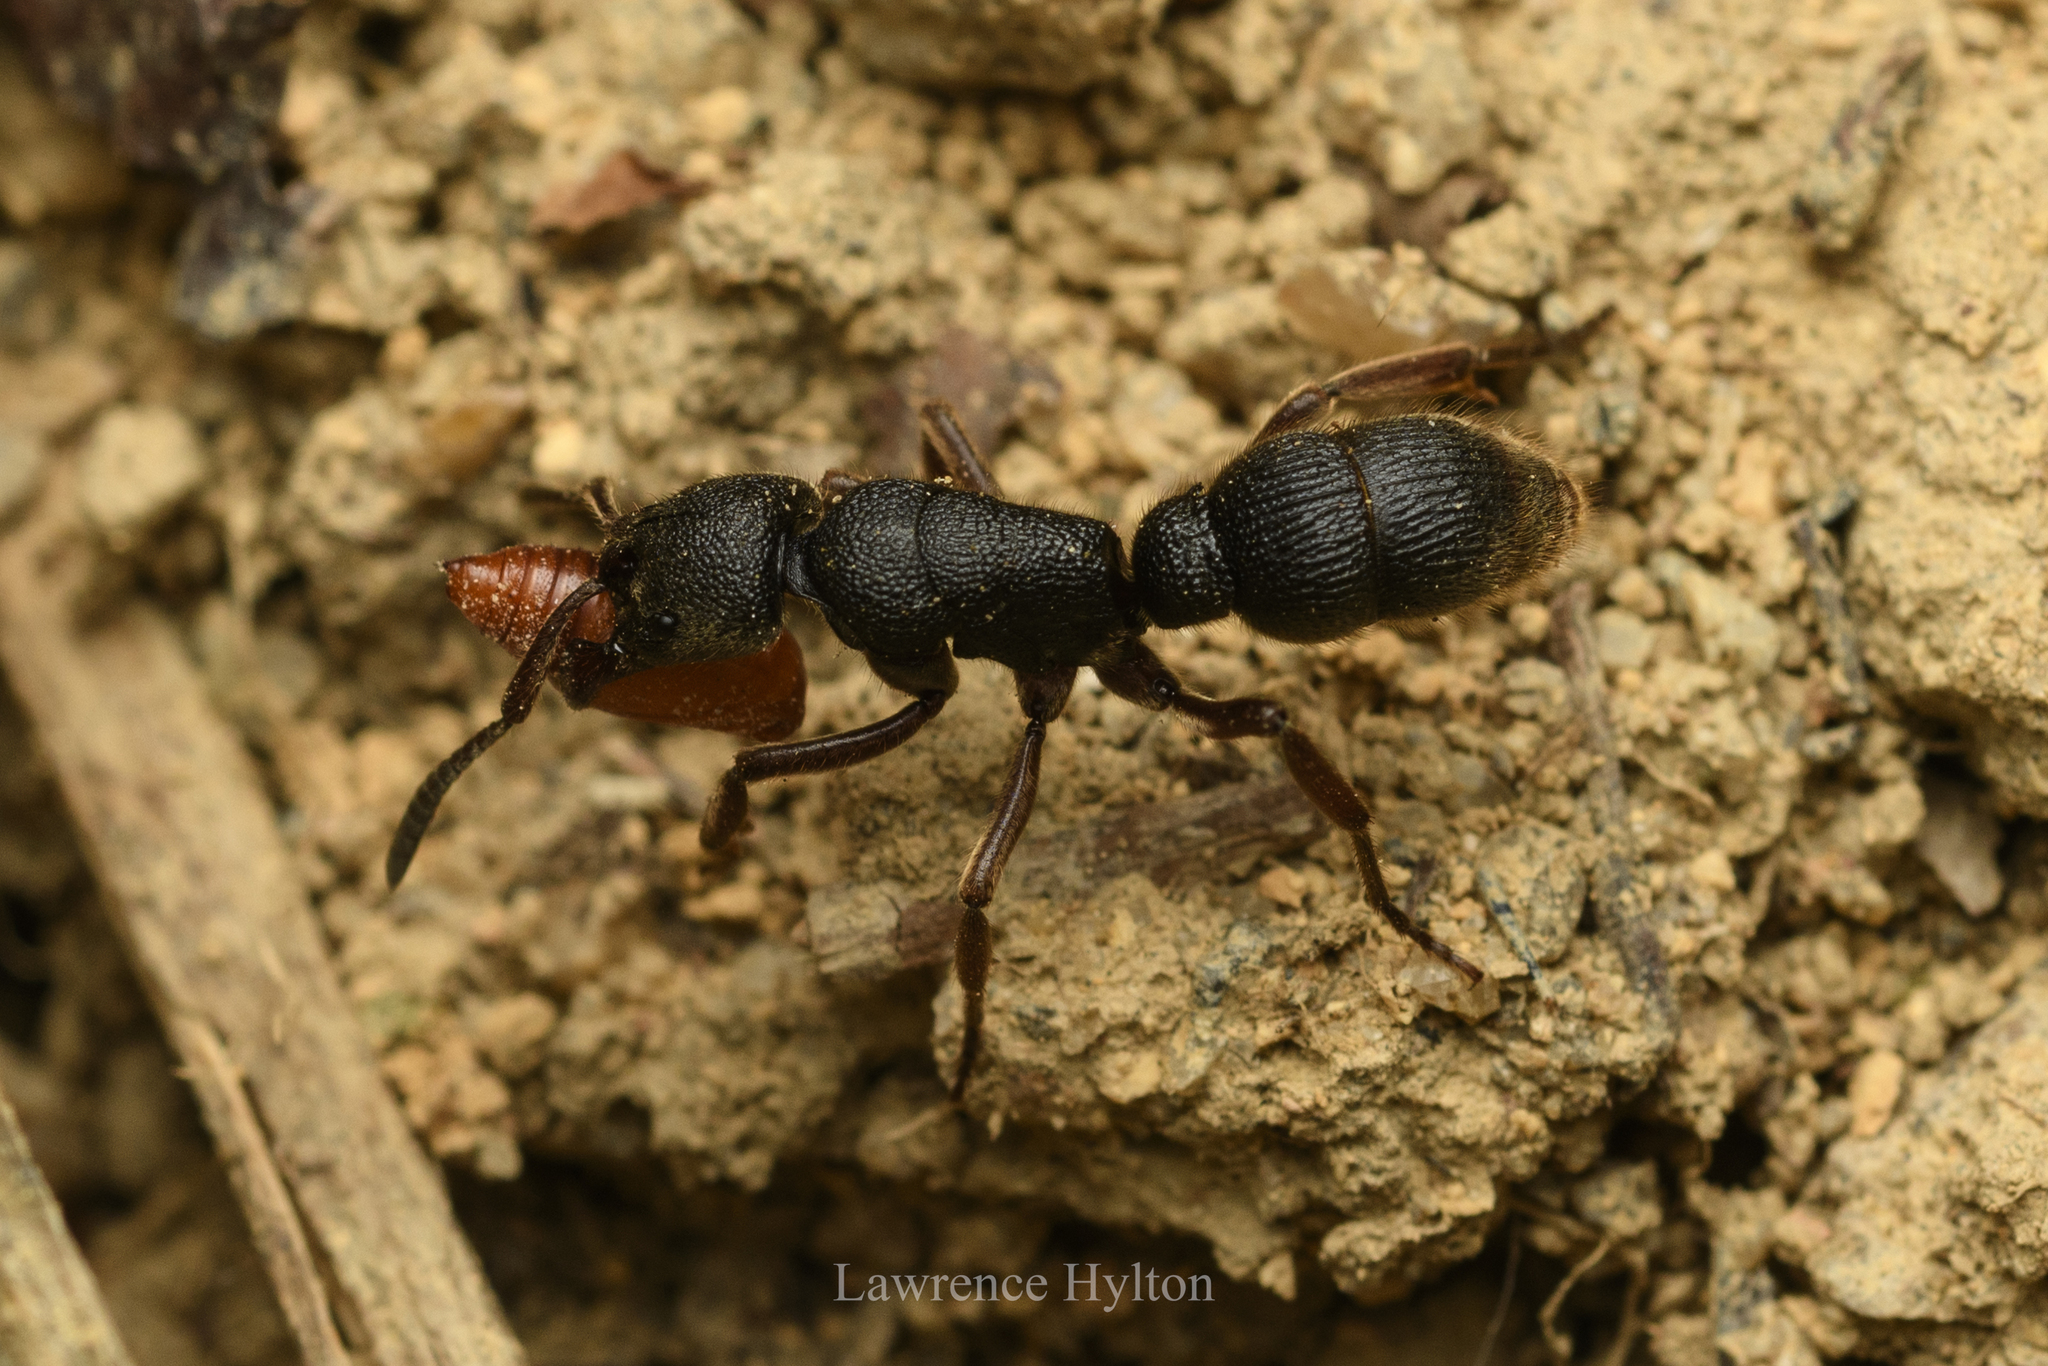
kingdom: Animalia
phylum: Arthropoda
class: Insecta
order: Hymenoptera
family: Formicidae
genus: Pseudoneoponera
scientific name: Pseudoneoponera rufipes
